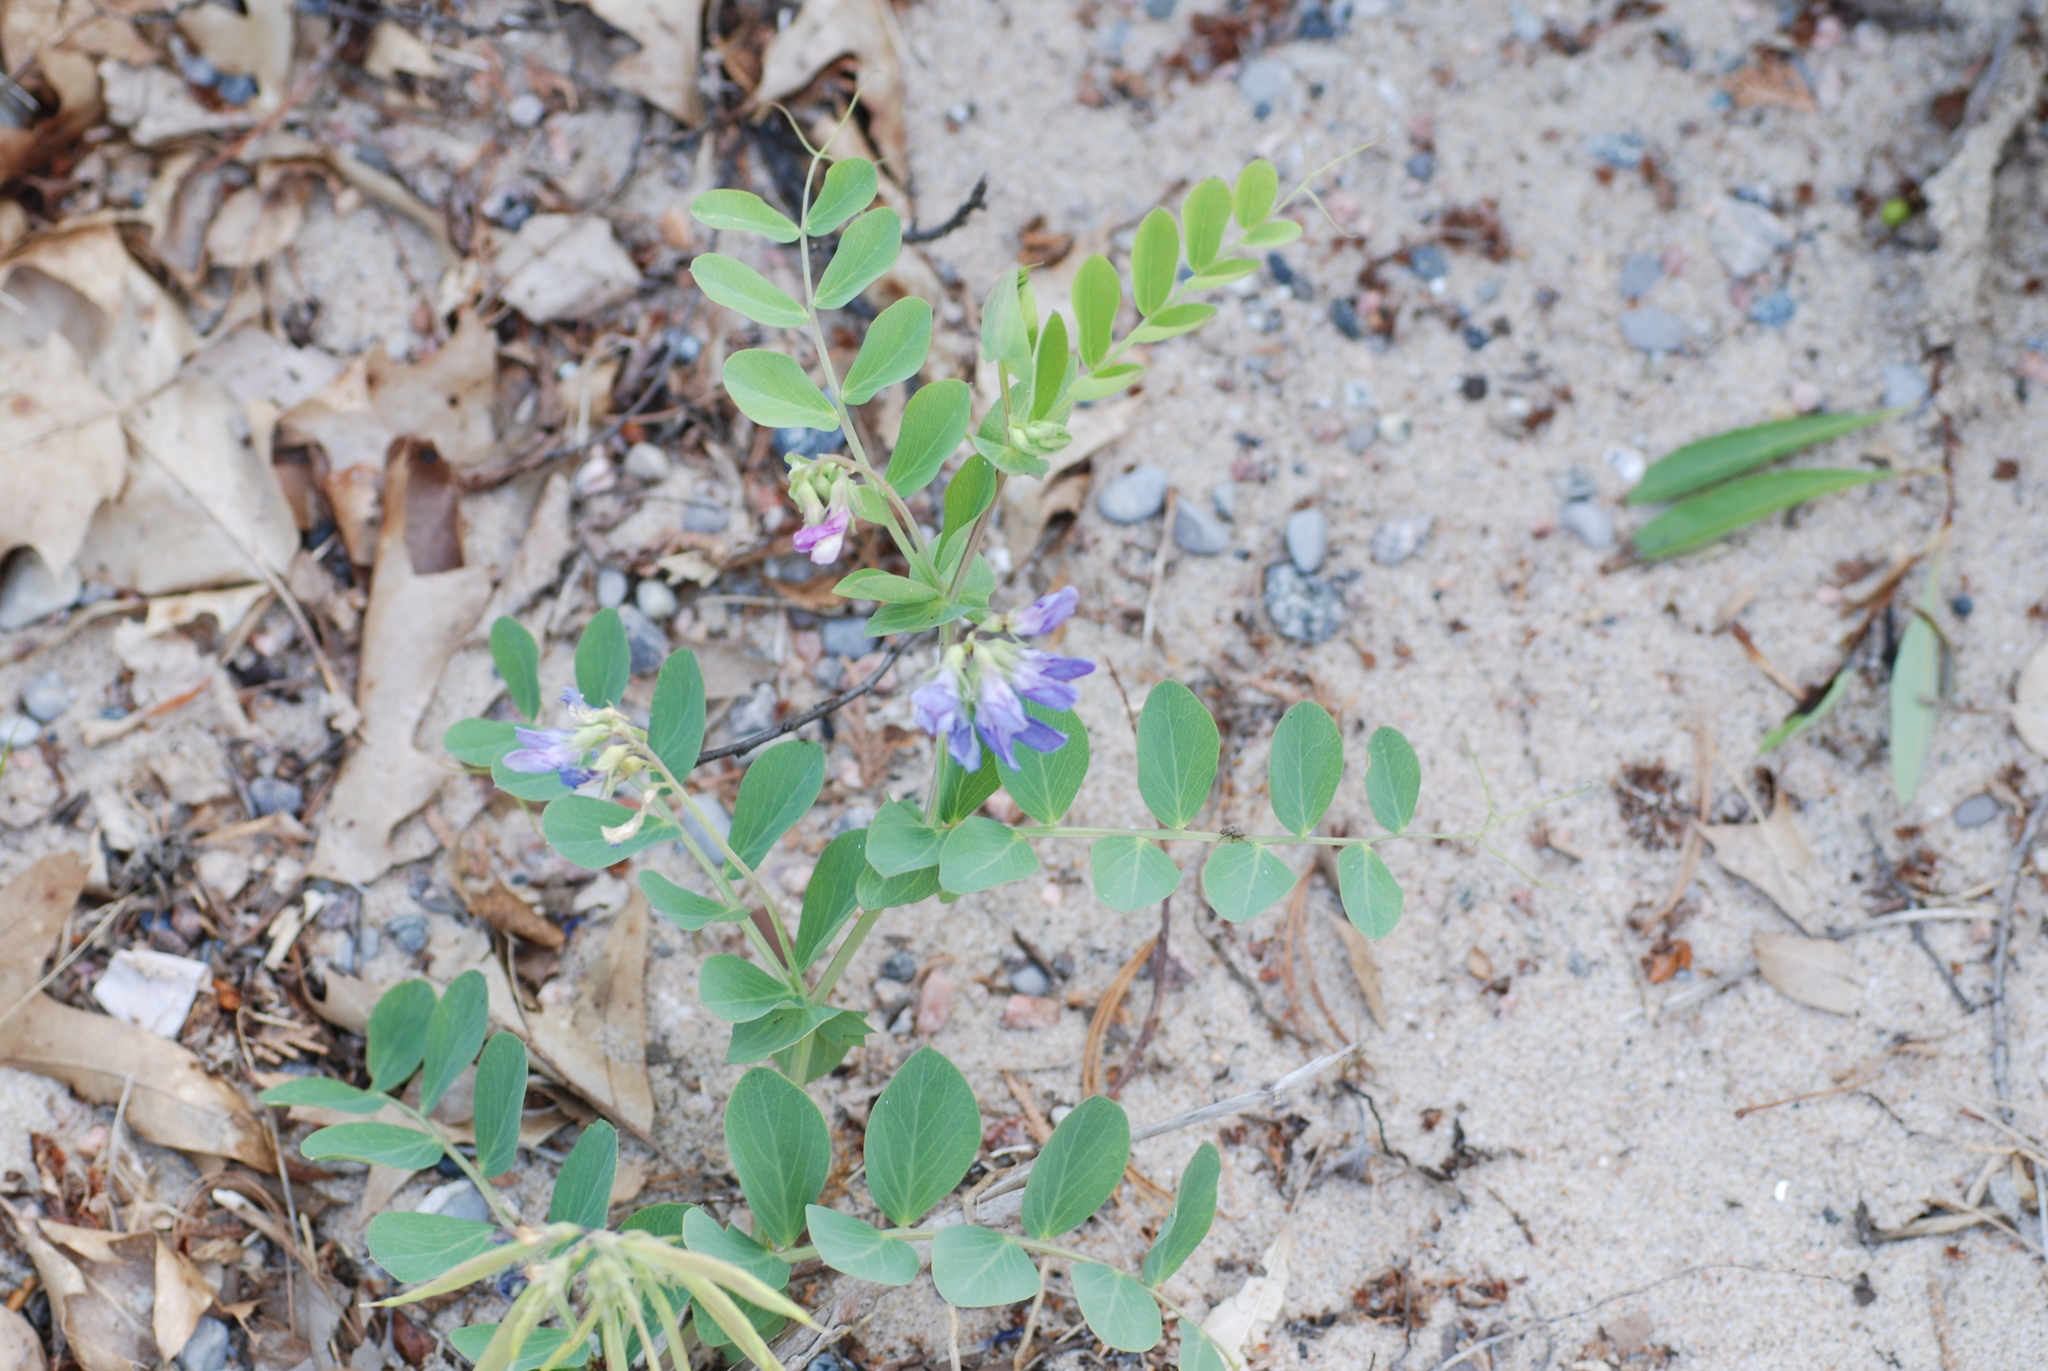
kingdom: Plantae
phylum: Tracheophyta
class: Magnoliopsida
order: Fabales
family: Fabaceae
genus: Lathyrus
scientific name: Lathyrus japonicus
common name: Sea pea
